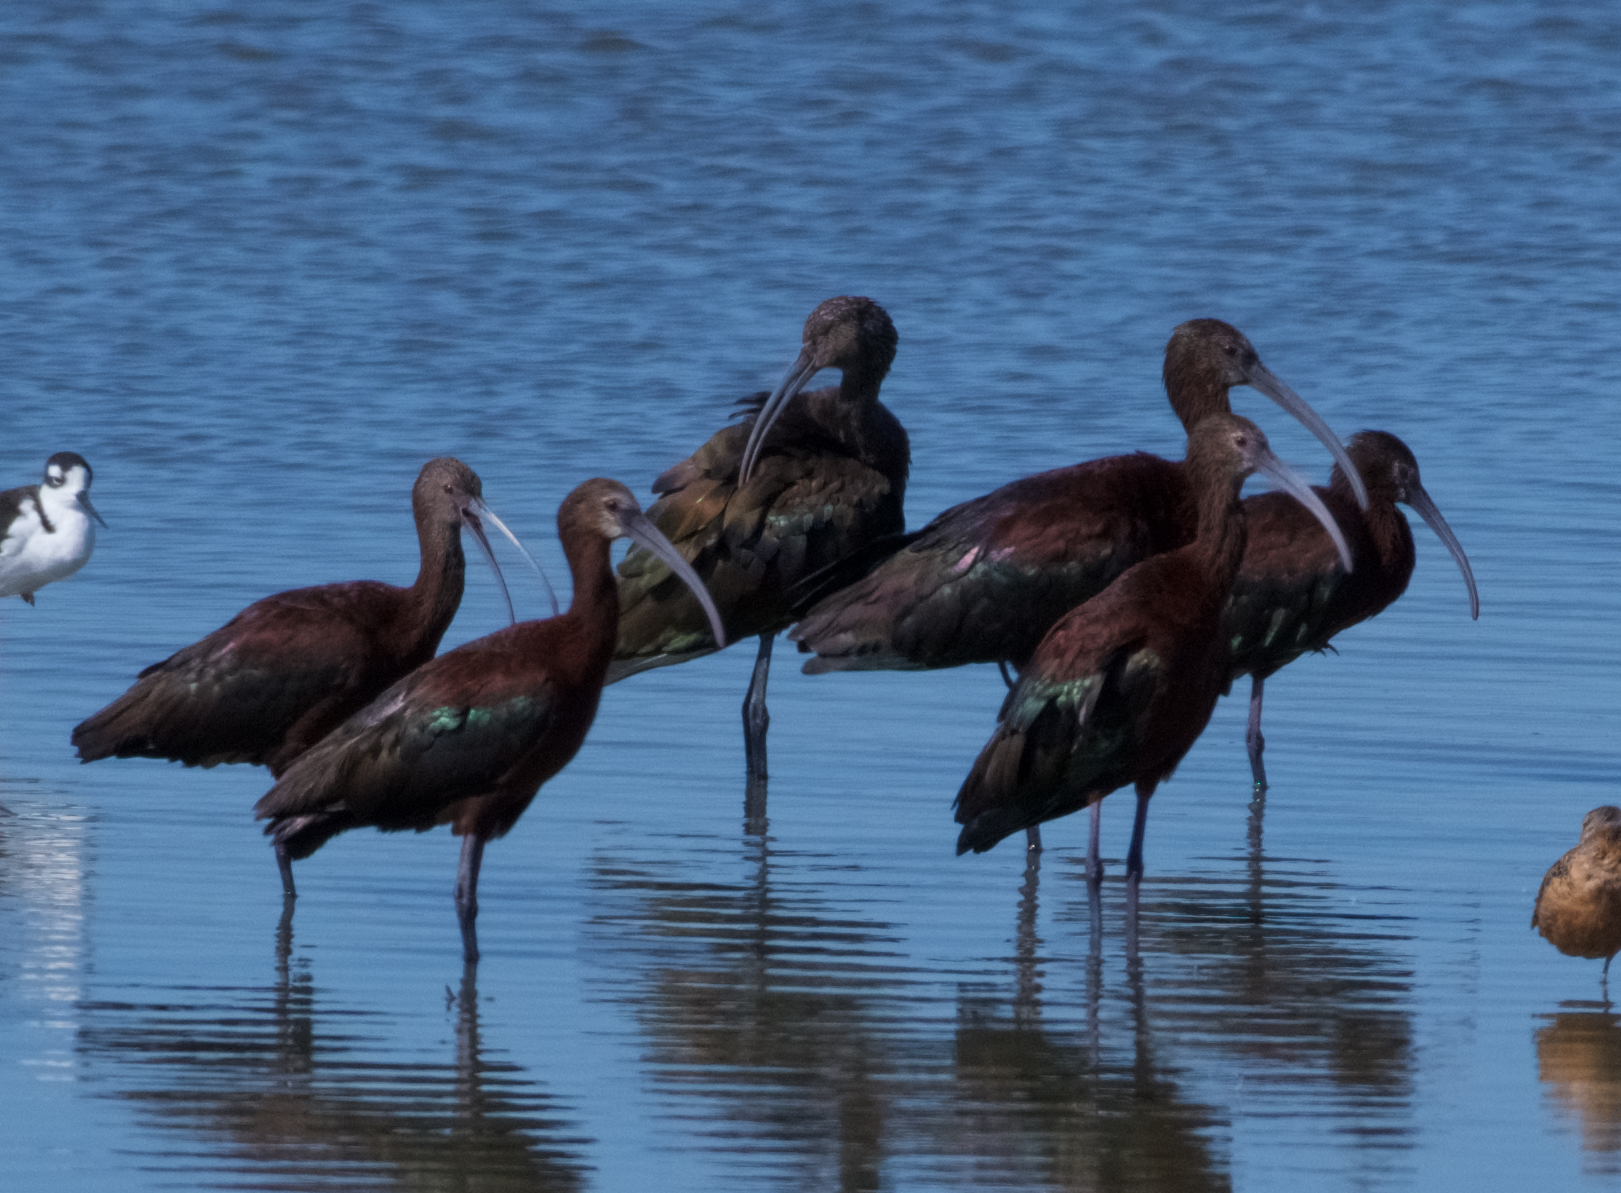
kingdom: Animalia
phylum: Chordata
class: Aves
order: Pelecaniformes
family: Threskiornithidae
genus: Plegadis
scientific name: Plegadis chihi
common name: White-faced ibis
